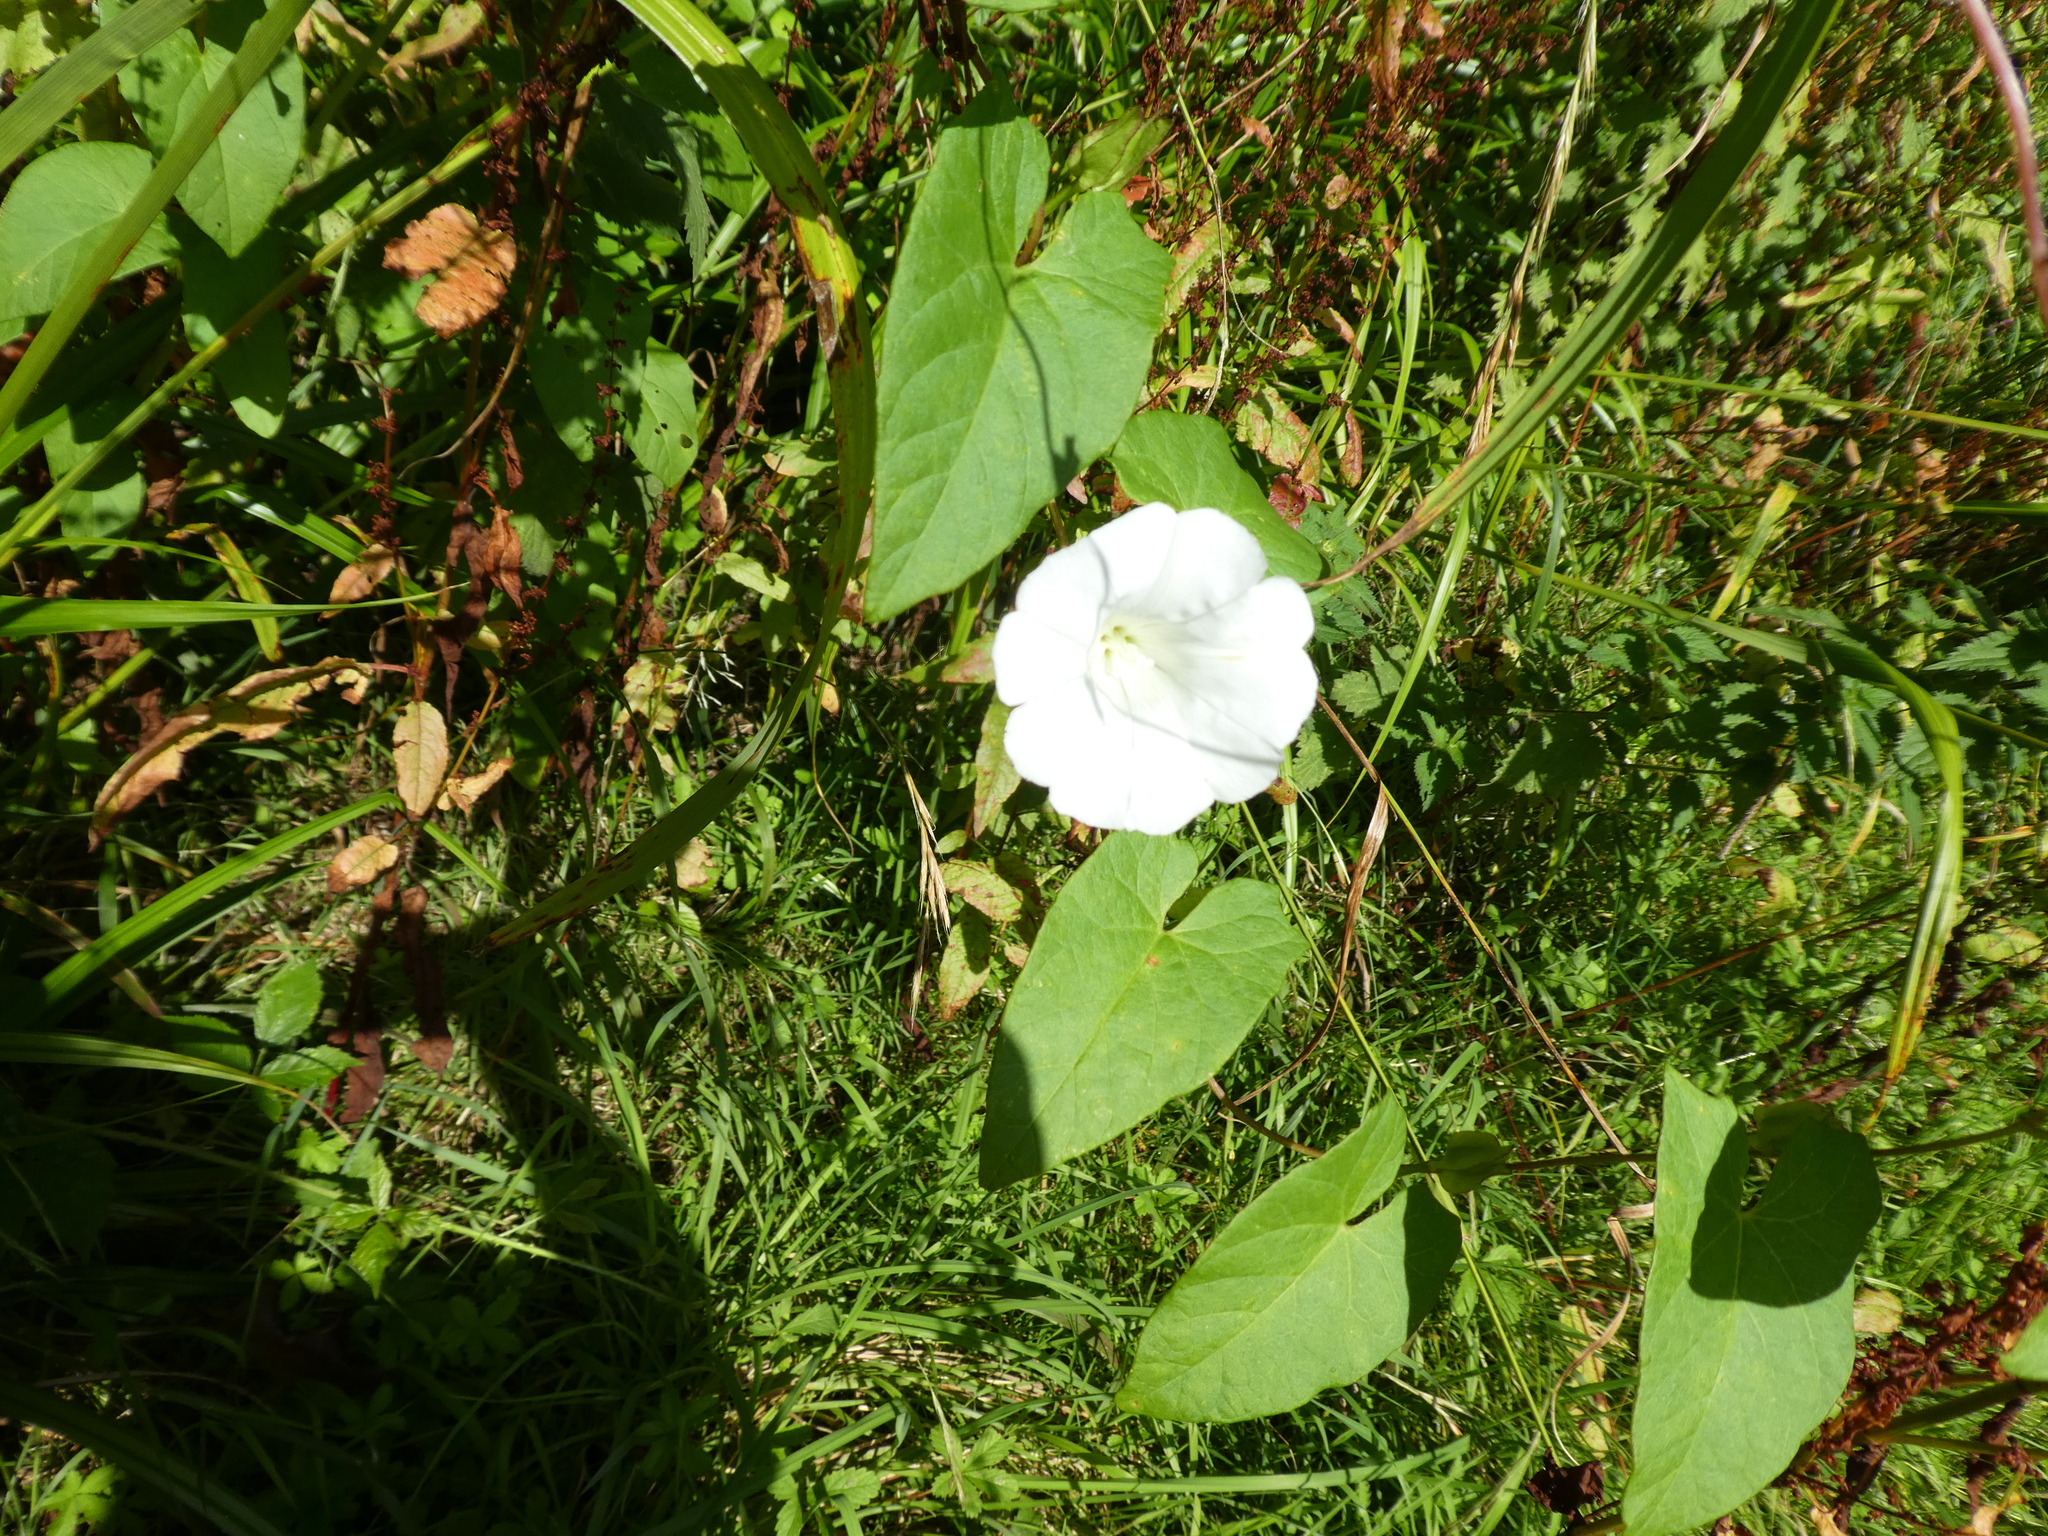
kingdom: Plantae
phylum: Tracheophyta
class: Magnoliopsida
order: Solanales
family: Convolvulaceae
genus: Calystegia
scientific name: Calystegia sepium
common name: Hedge bindweed
